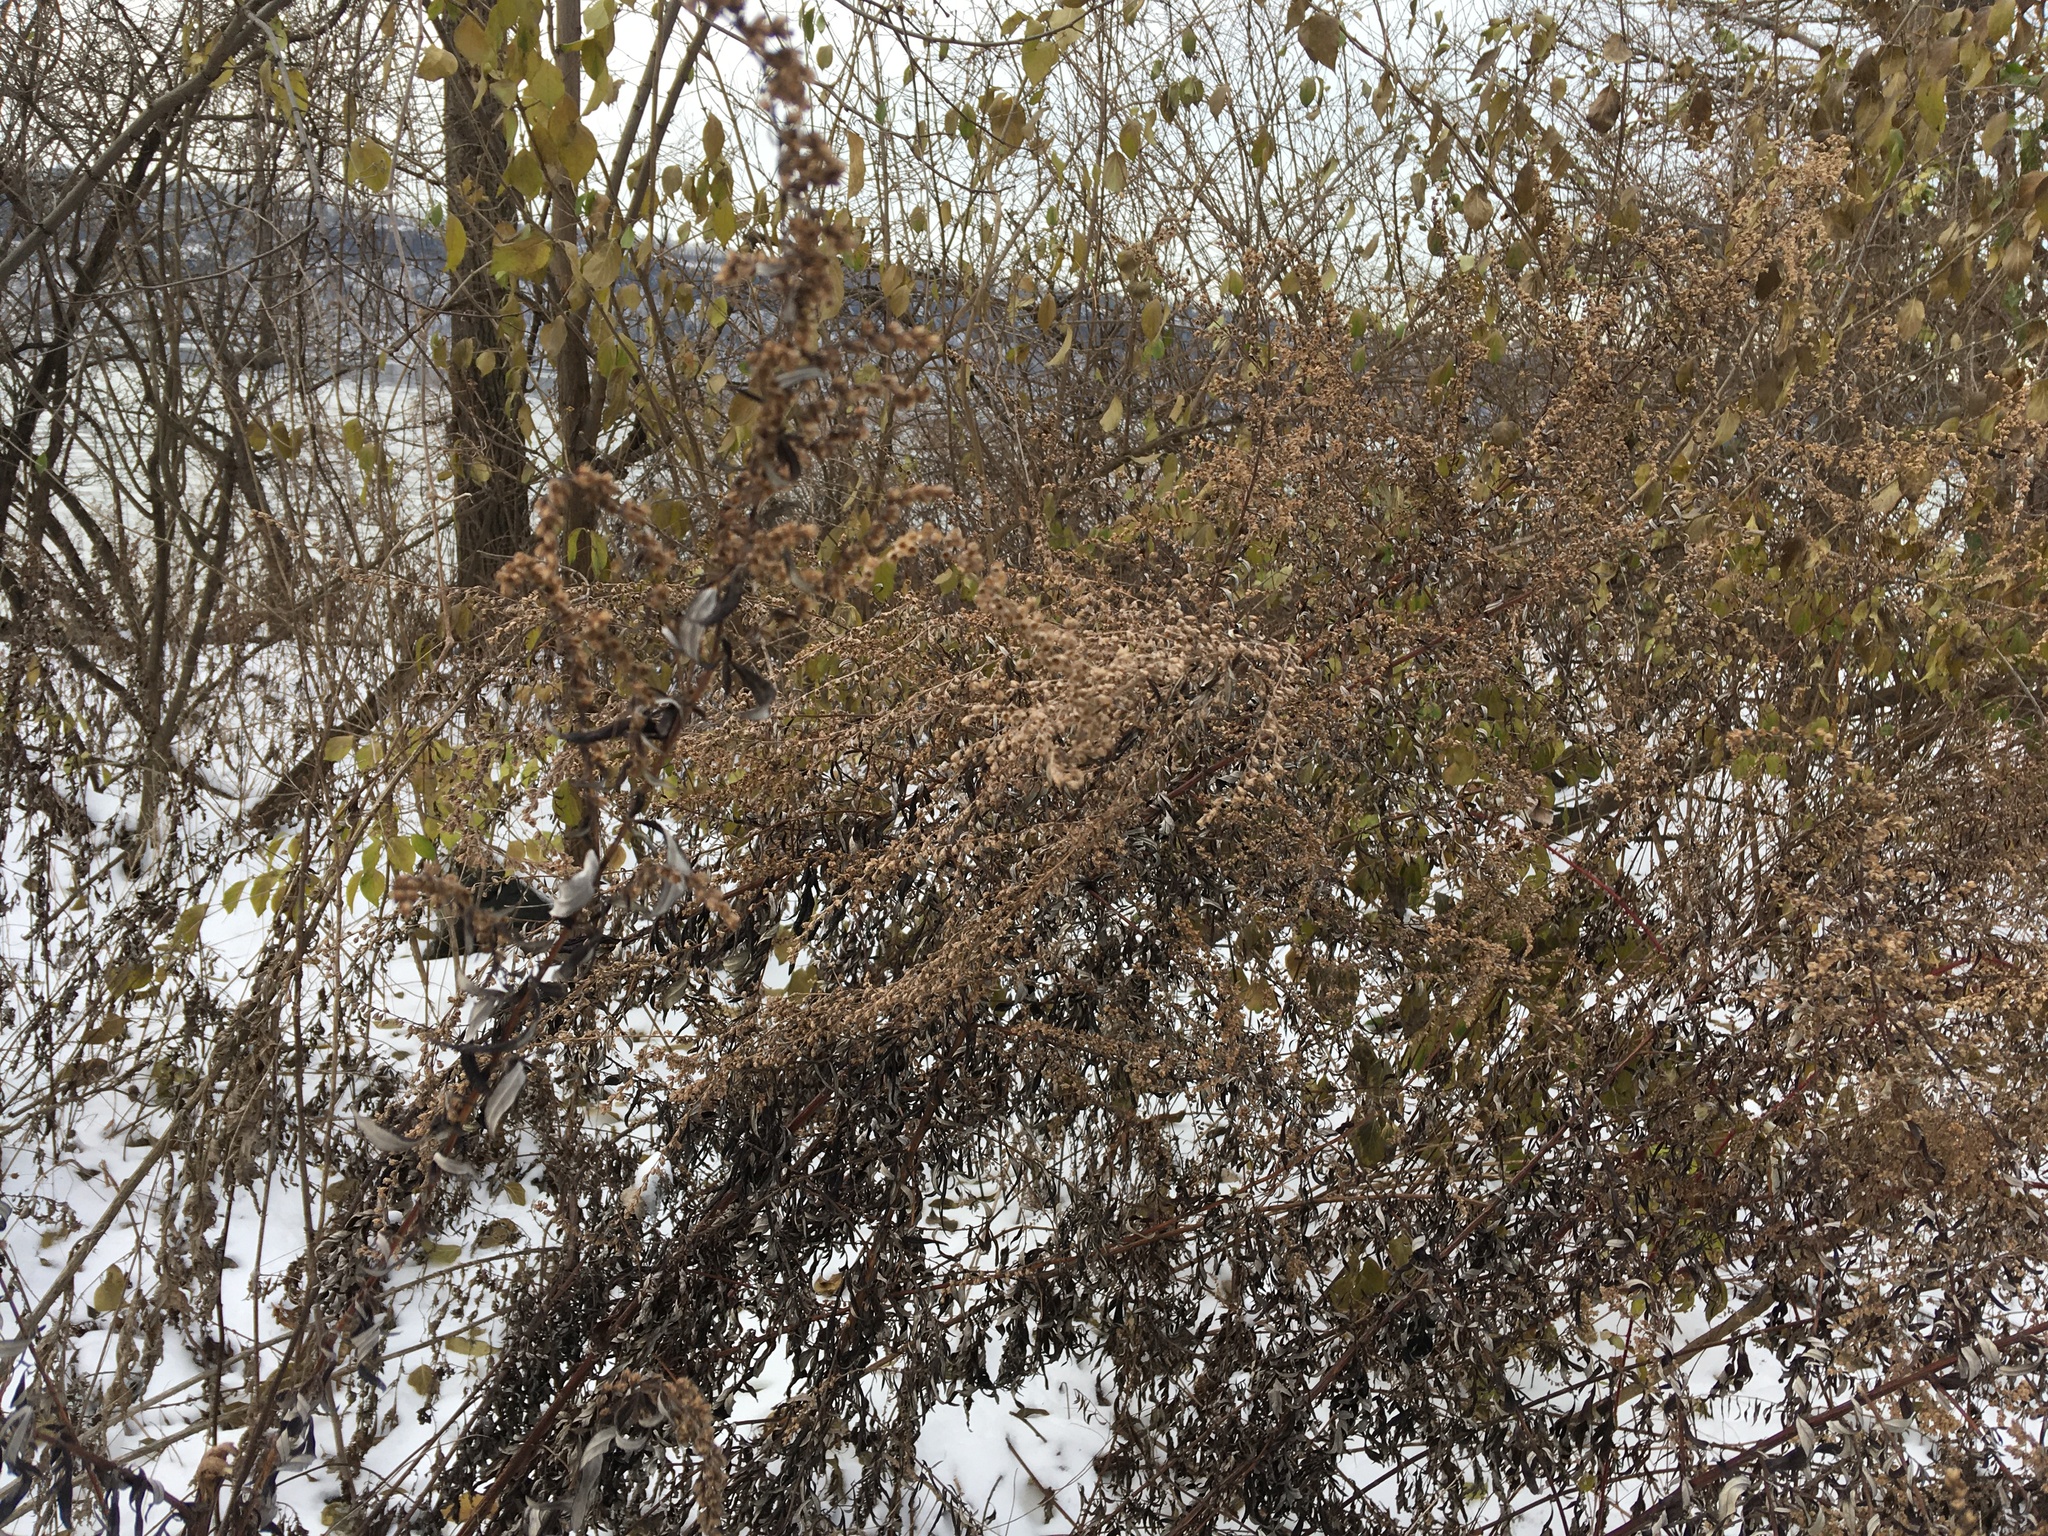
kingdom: Plantae
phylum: Tracheophyta
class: Magnoliopsida
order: Asterales
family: Asteraceae
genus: Artemisia
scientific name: Artemisia vulgaris
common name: Mugwort
